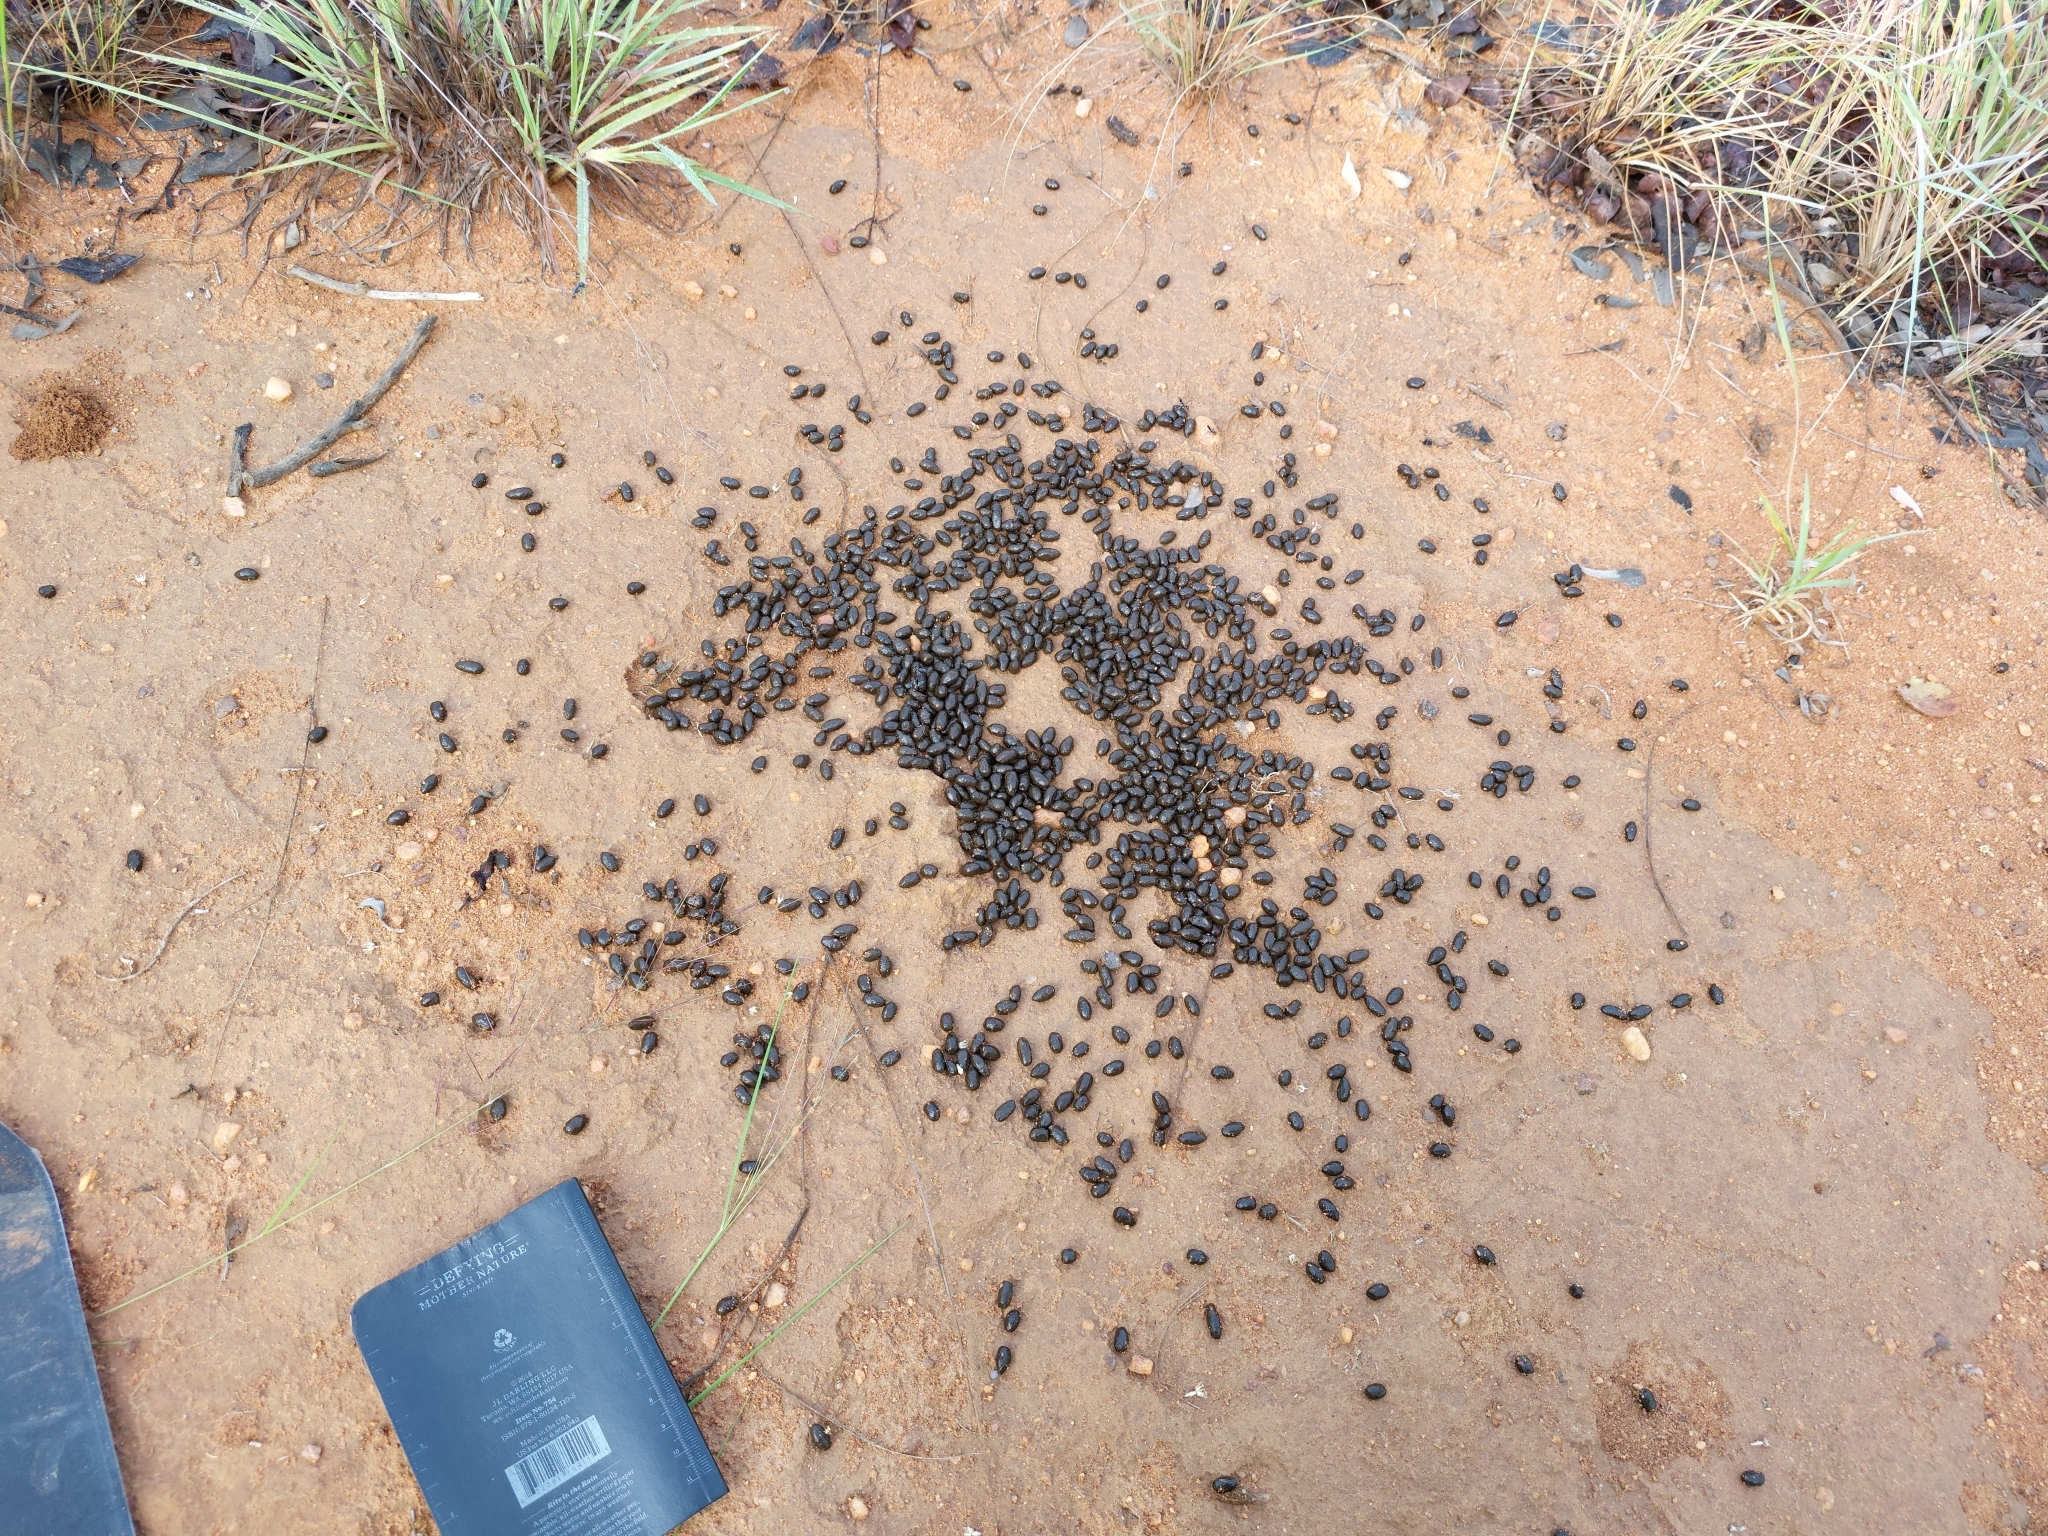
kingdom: Animalia
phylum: Chordata
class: Mammalia
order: Artiodactyla
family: Bovidae
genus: Raphicerus
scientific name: Raphicerus sharpei
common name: Sharpe's grysbok
